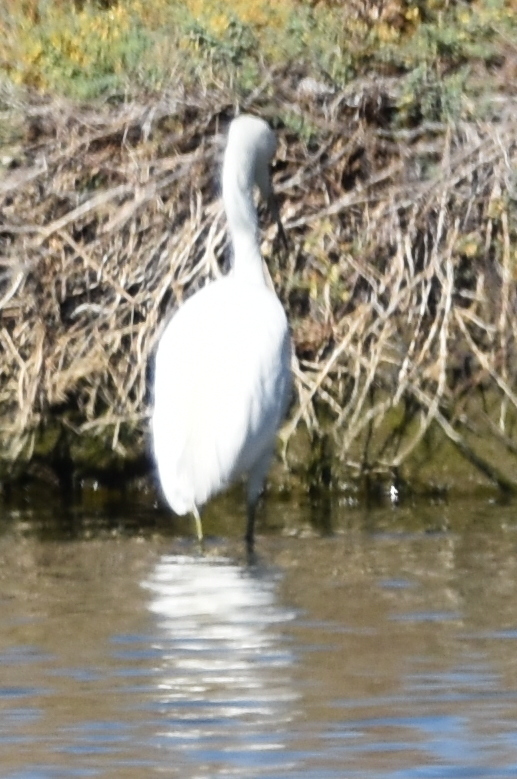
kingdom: Animalia
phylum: Chordata
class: Aves
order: Pelecaniformes
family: Ardeidae
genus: Egretta
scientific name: Egretta thula
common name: Snowy egret
